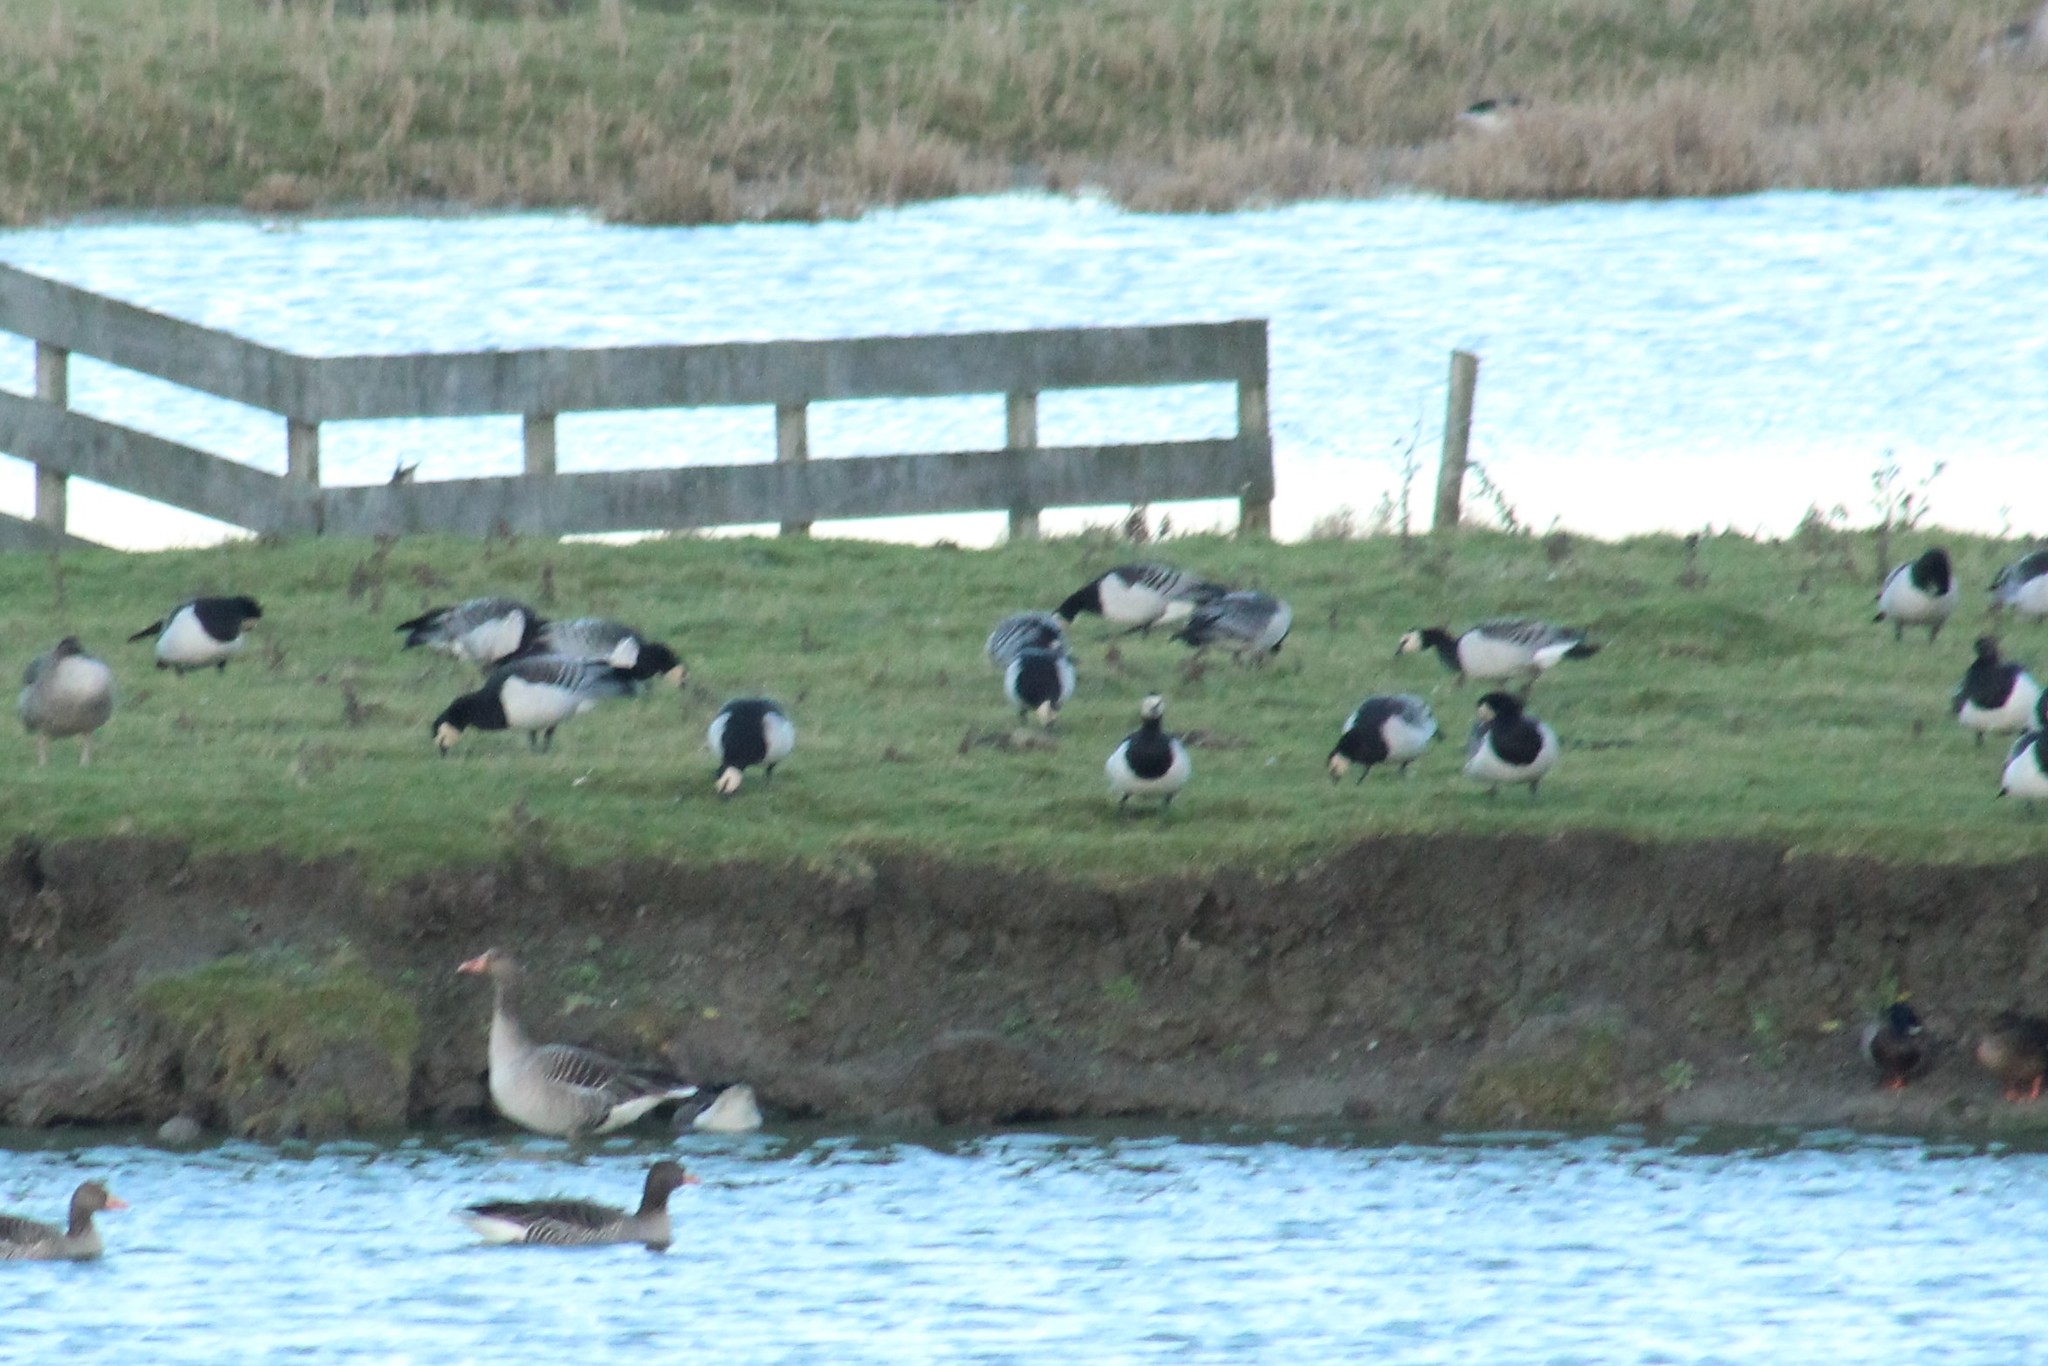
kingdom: Animalia
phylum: Chordata
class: Aves
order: Anseriformes
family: Anatidae
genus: Branta
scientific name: Branta leucopsis
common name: Barnacle goose
